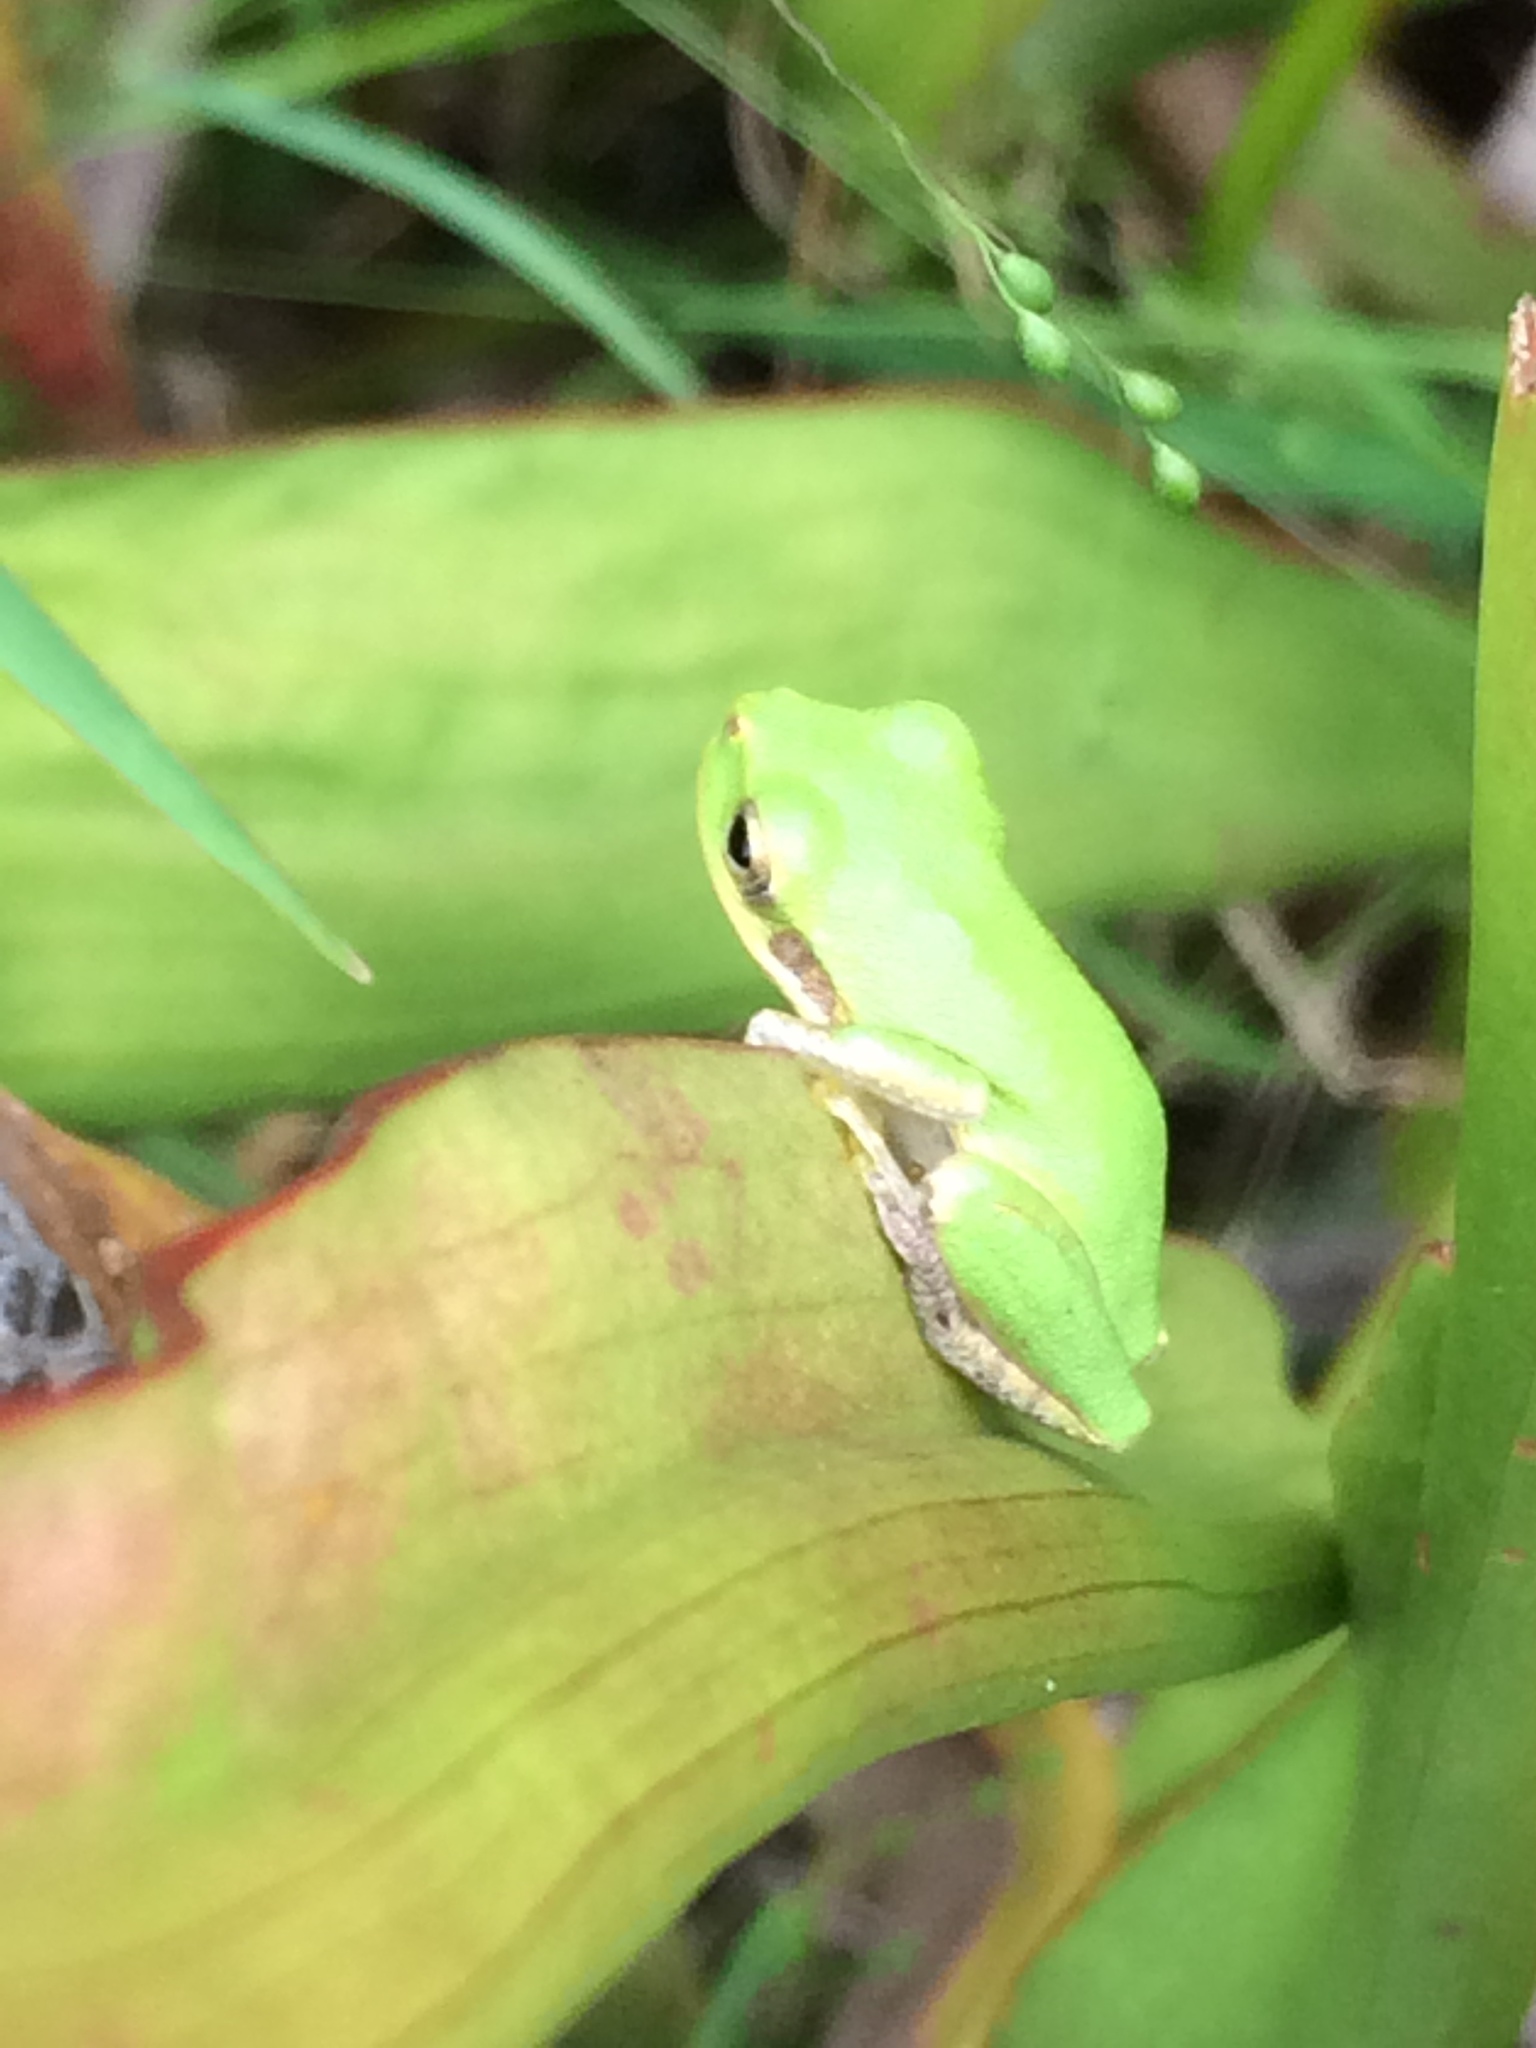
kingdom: Animalia
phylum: Chordata
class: Amphibia
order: Anura
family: Hylidae
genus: Dryophytes
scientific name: Dryophytes squirellus
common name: Squirrel treefrog
